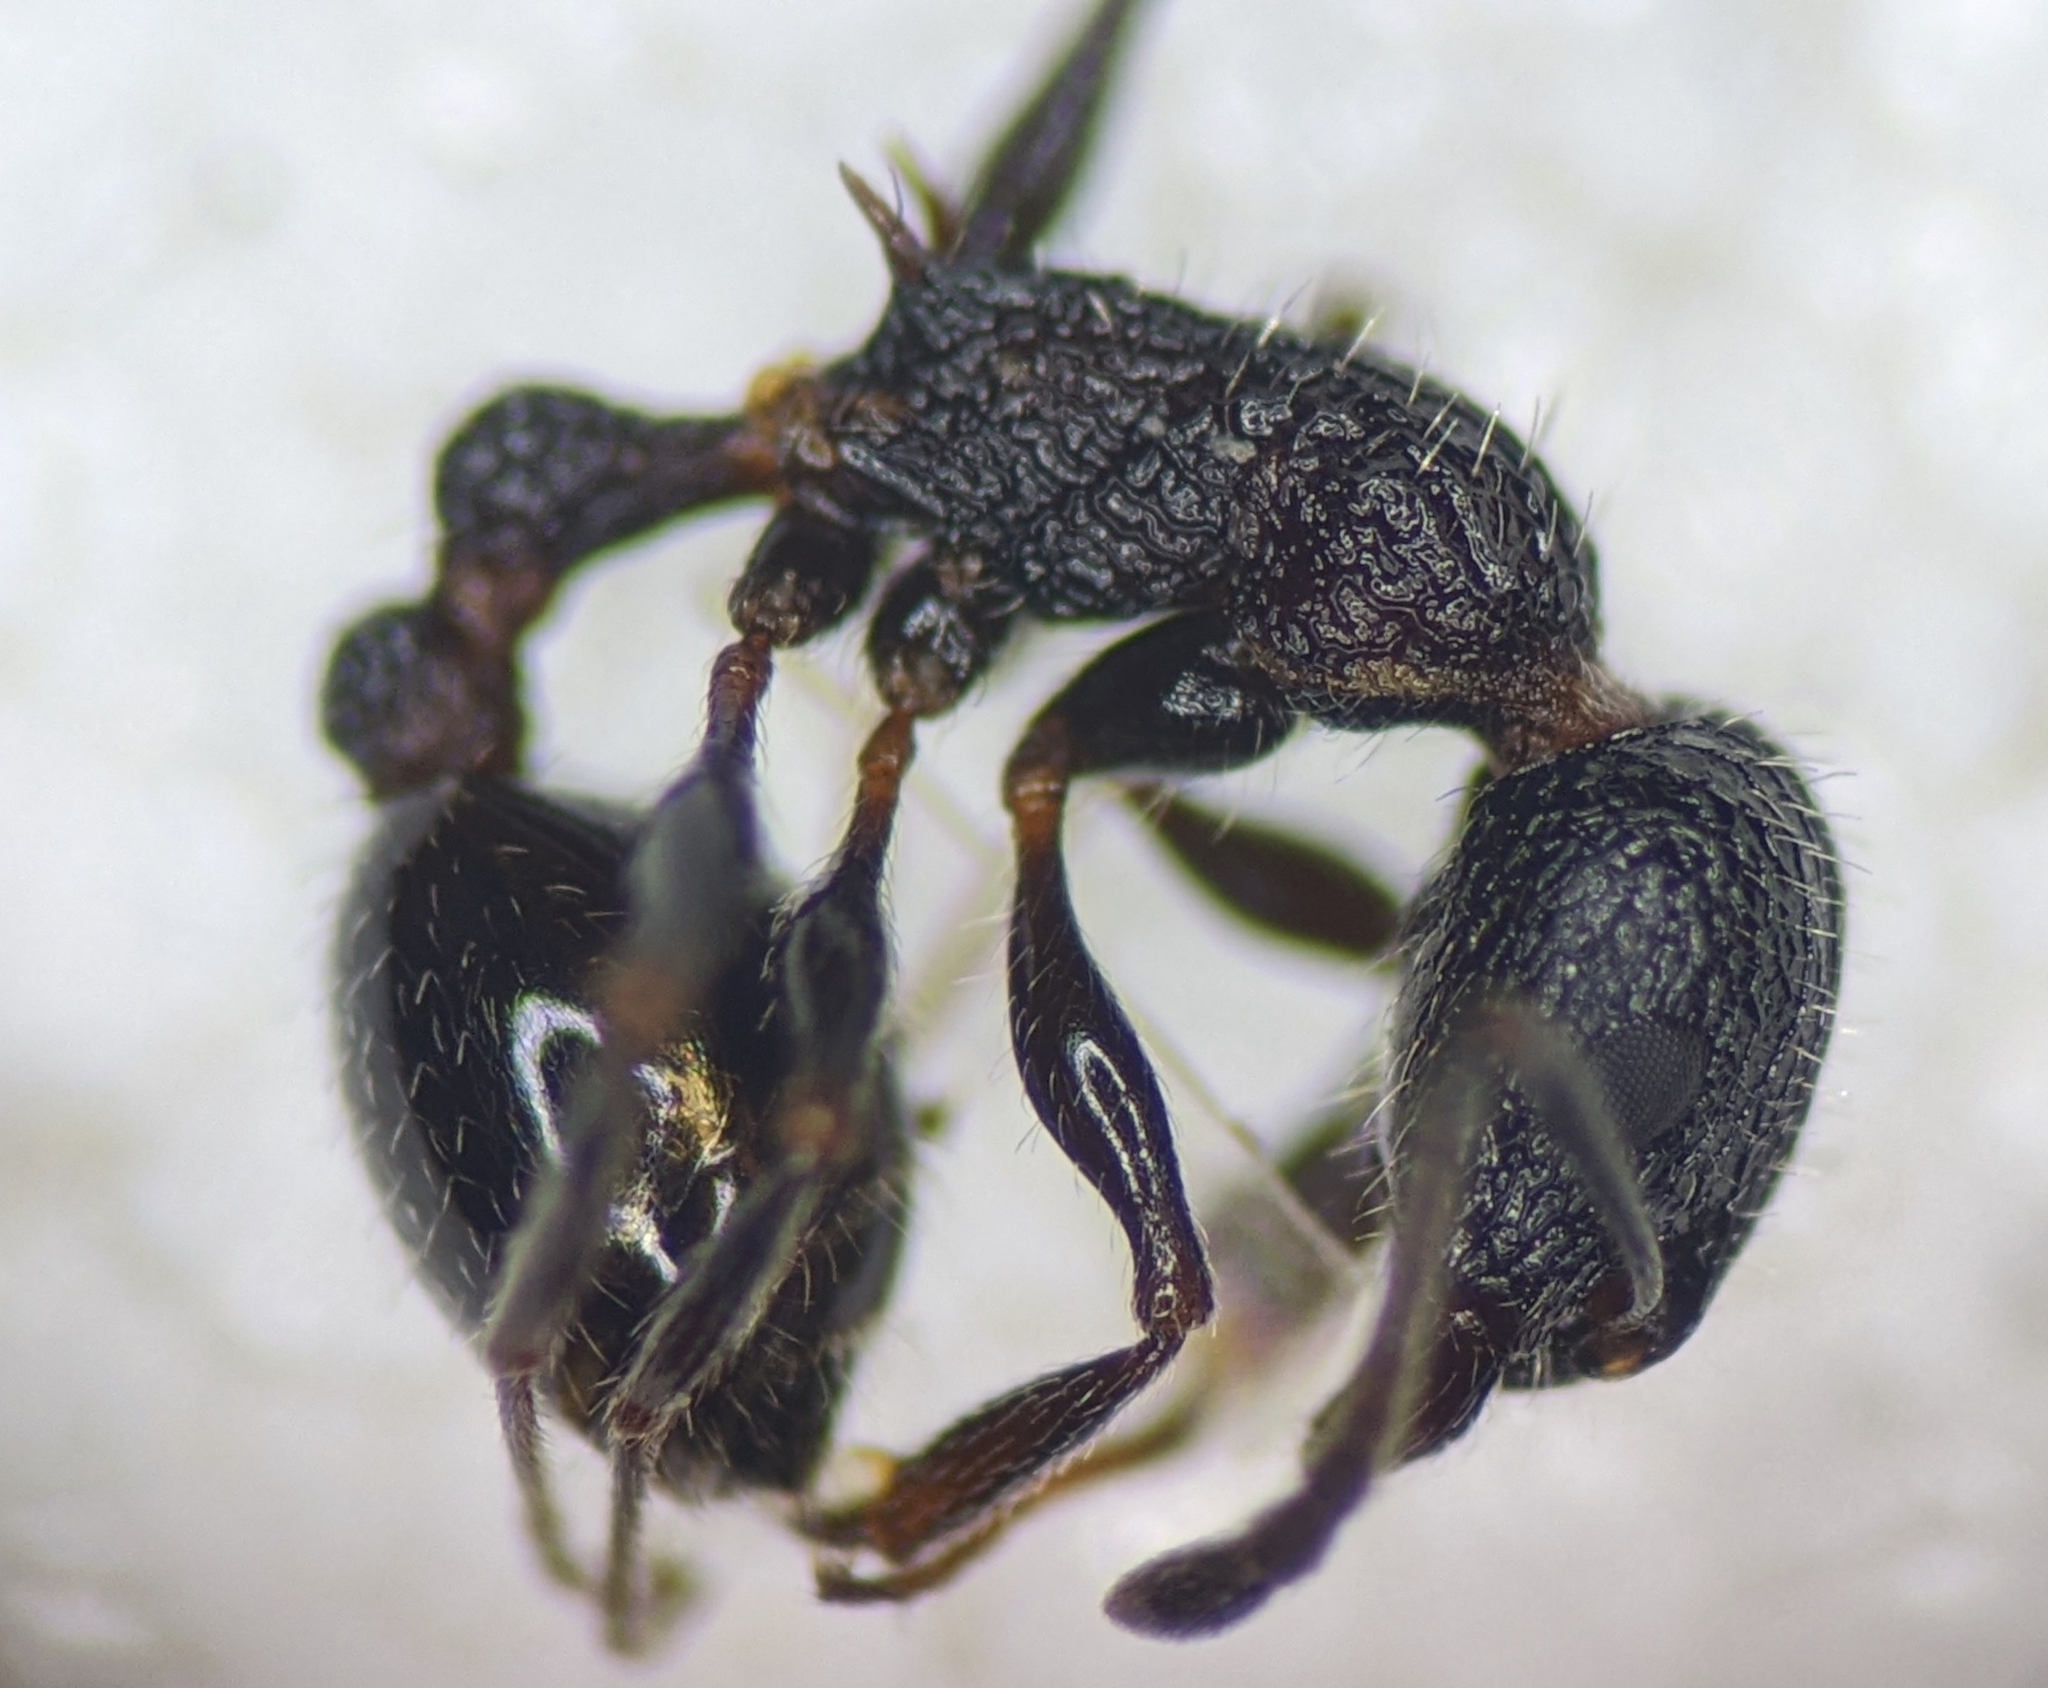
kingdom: Animalia
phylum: Arthropoda
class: Insecta
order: Hymenoptera
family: Formicidae
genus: Leptothorax
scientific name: Leptothorax formosus
